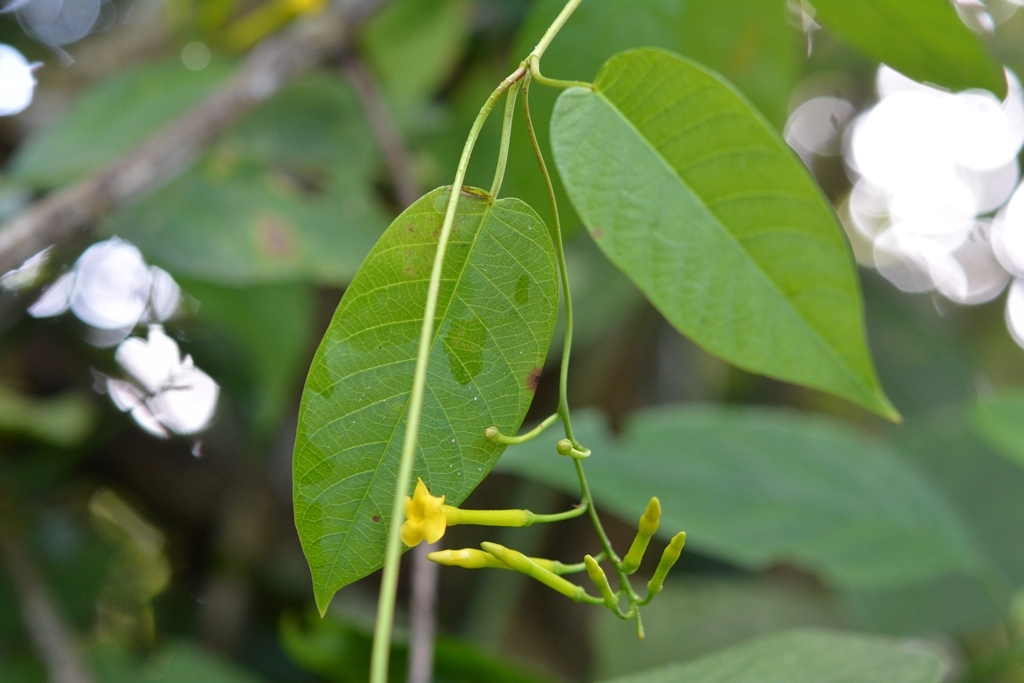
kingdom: Plantae
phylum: Tracheophyta
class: Magnoliopsida
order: Gentianales
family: Apocynaceae
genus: Mandevilla
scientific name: Mandevilla tubiflora
